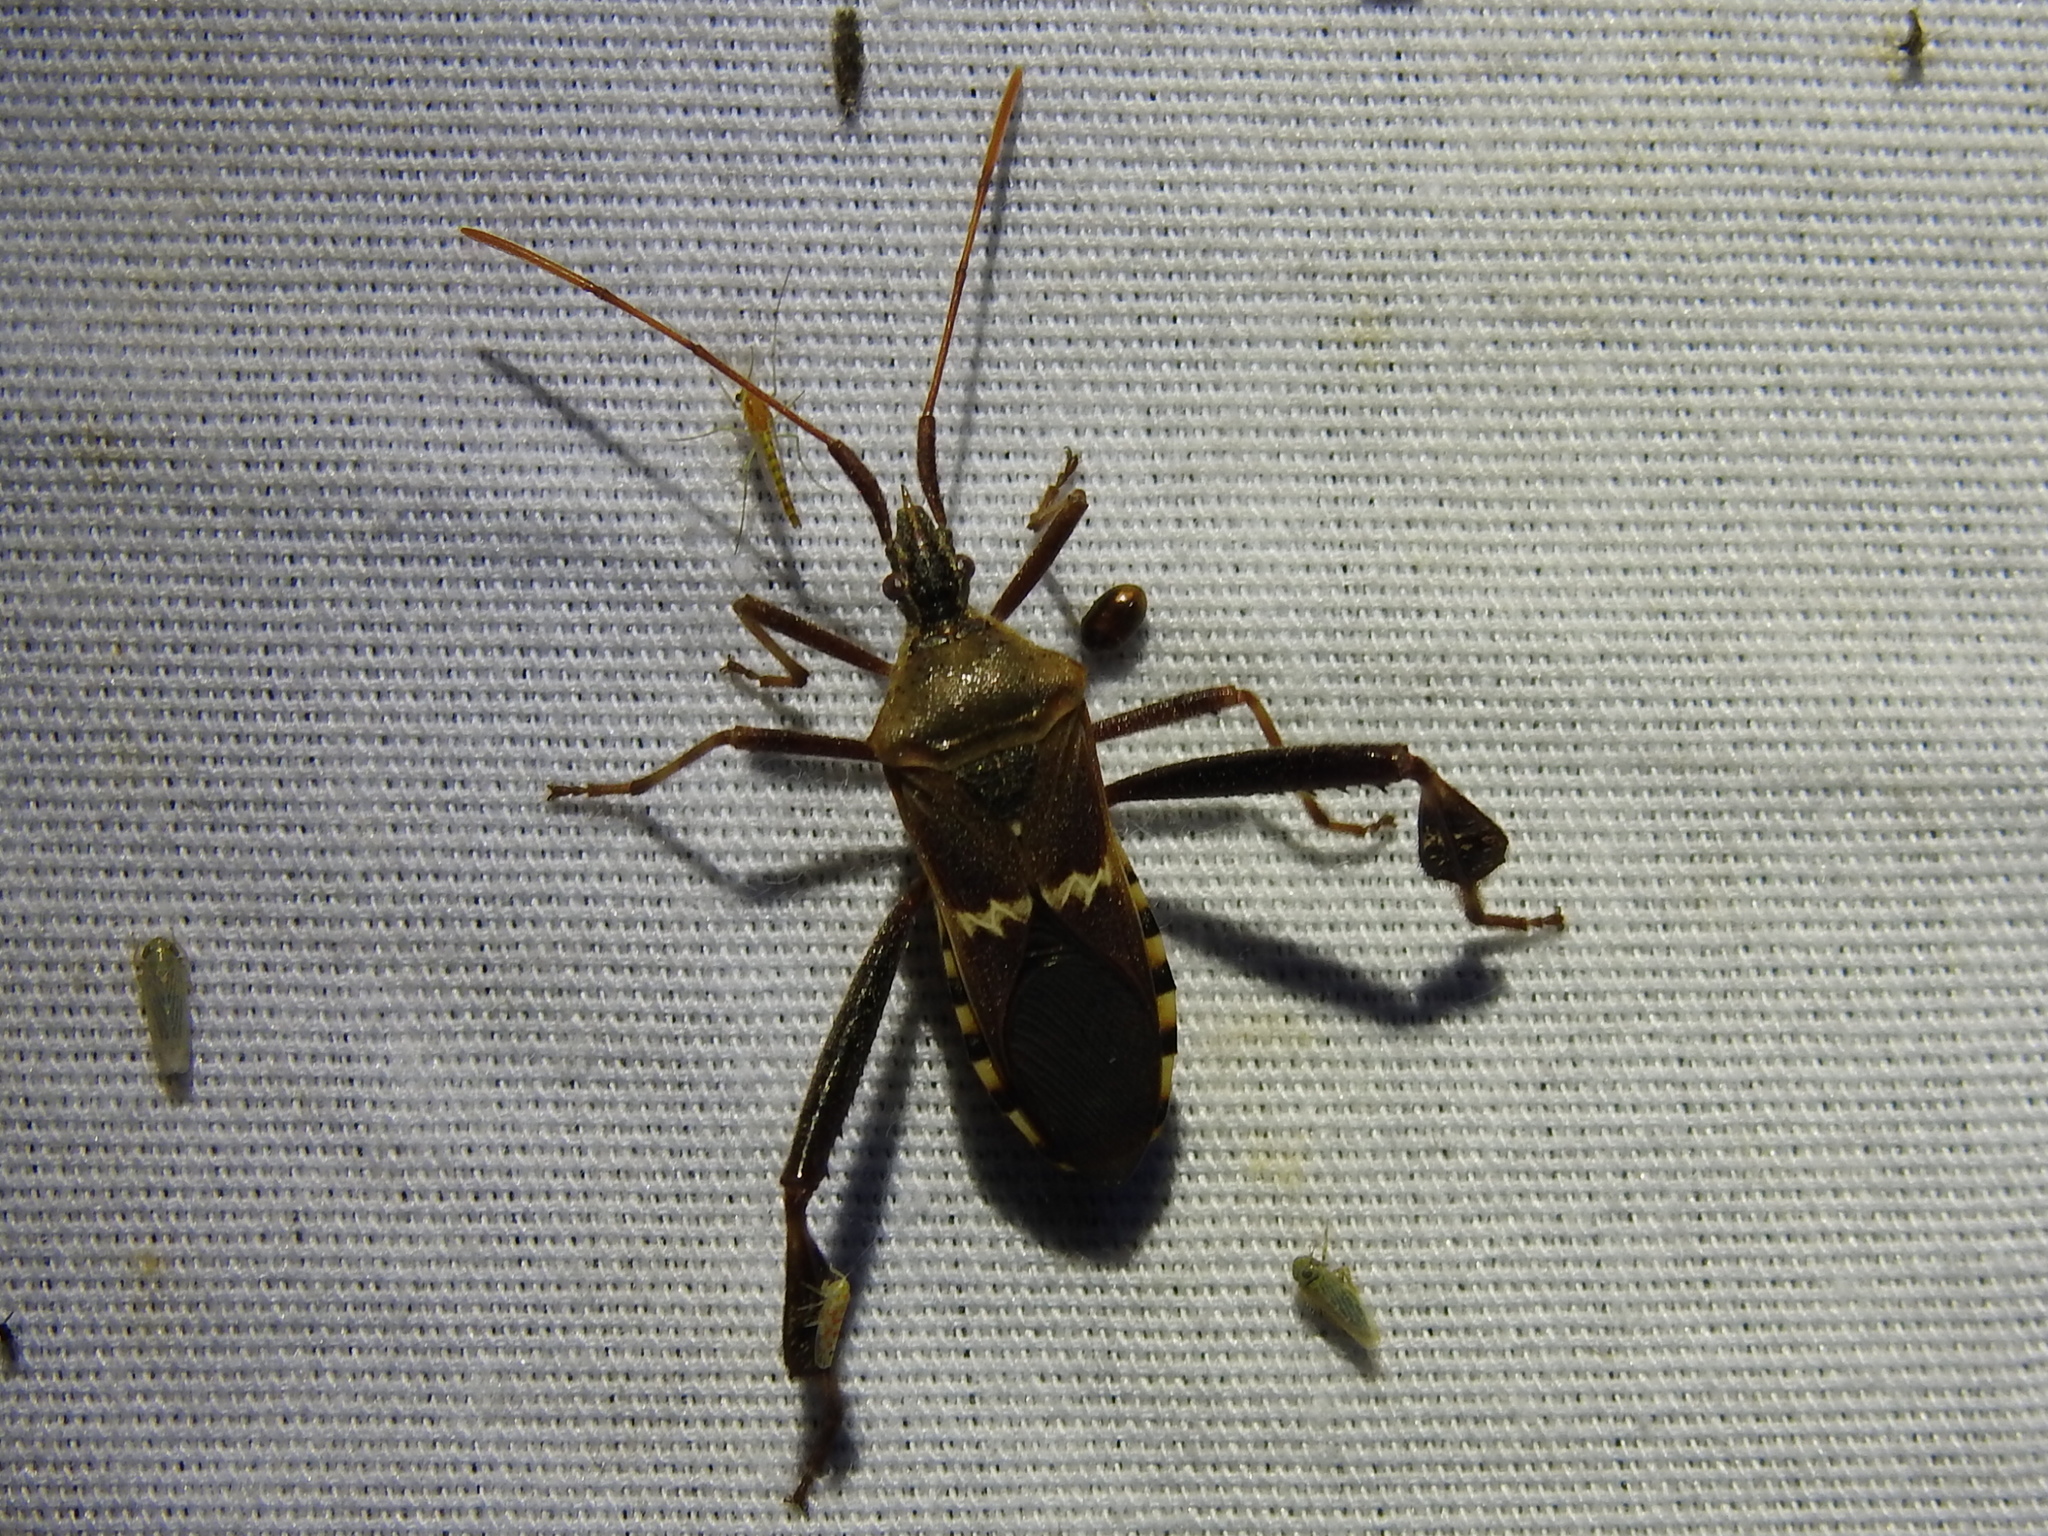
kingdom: Animalia
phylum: Arthropoda
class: Insecta
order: Hemiptera
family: Coreidae
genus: Leptoglossus
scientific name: Leptoglossus clypealis
